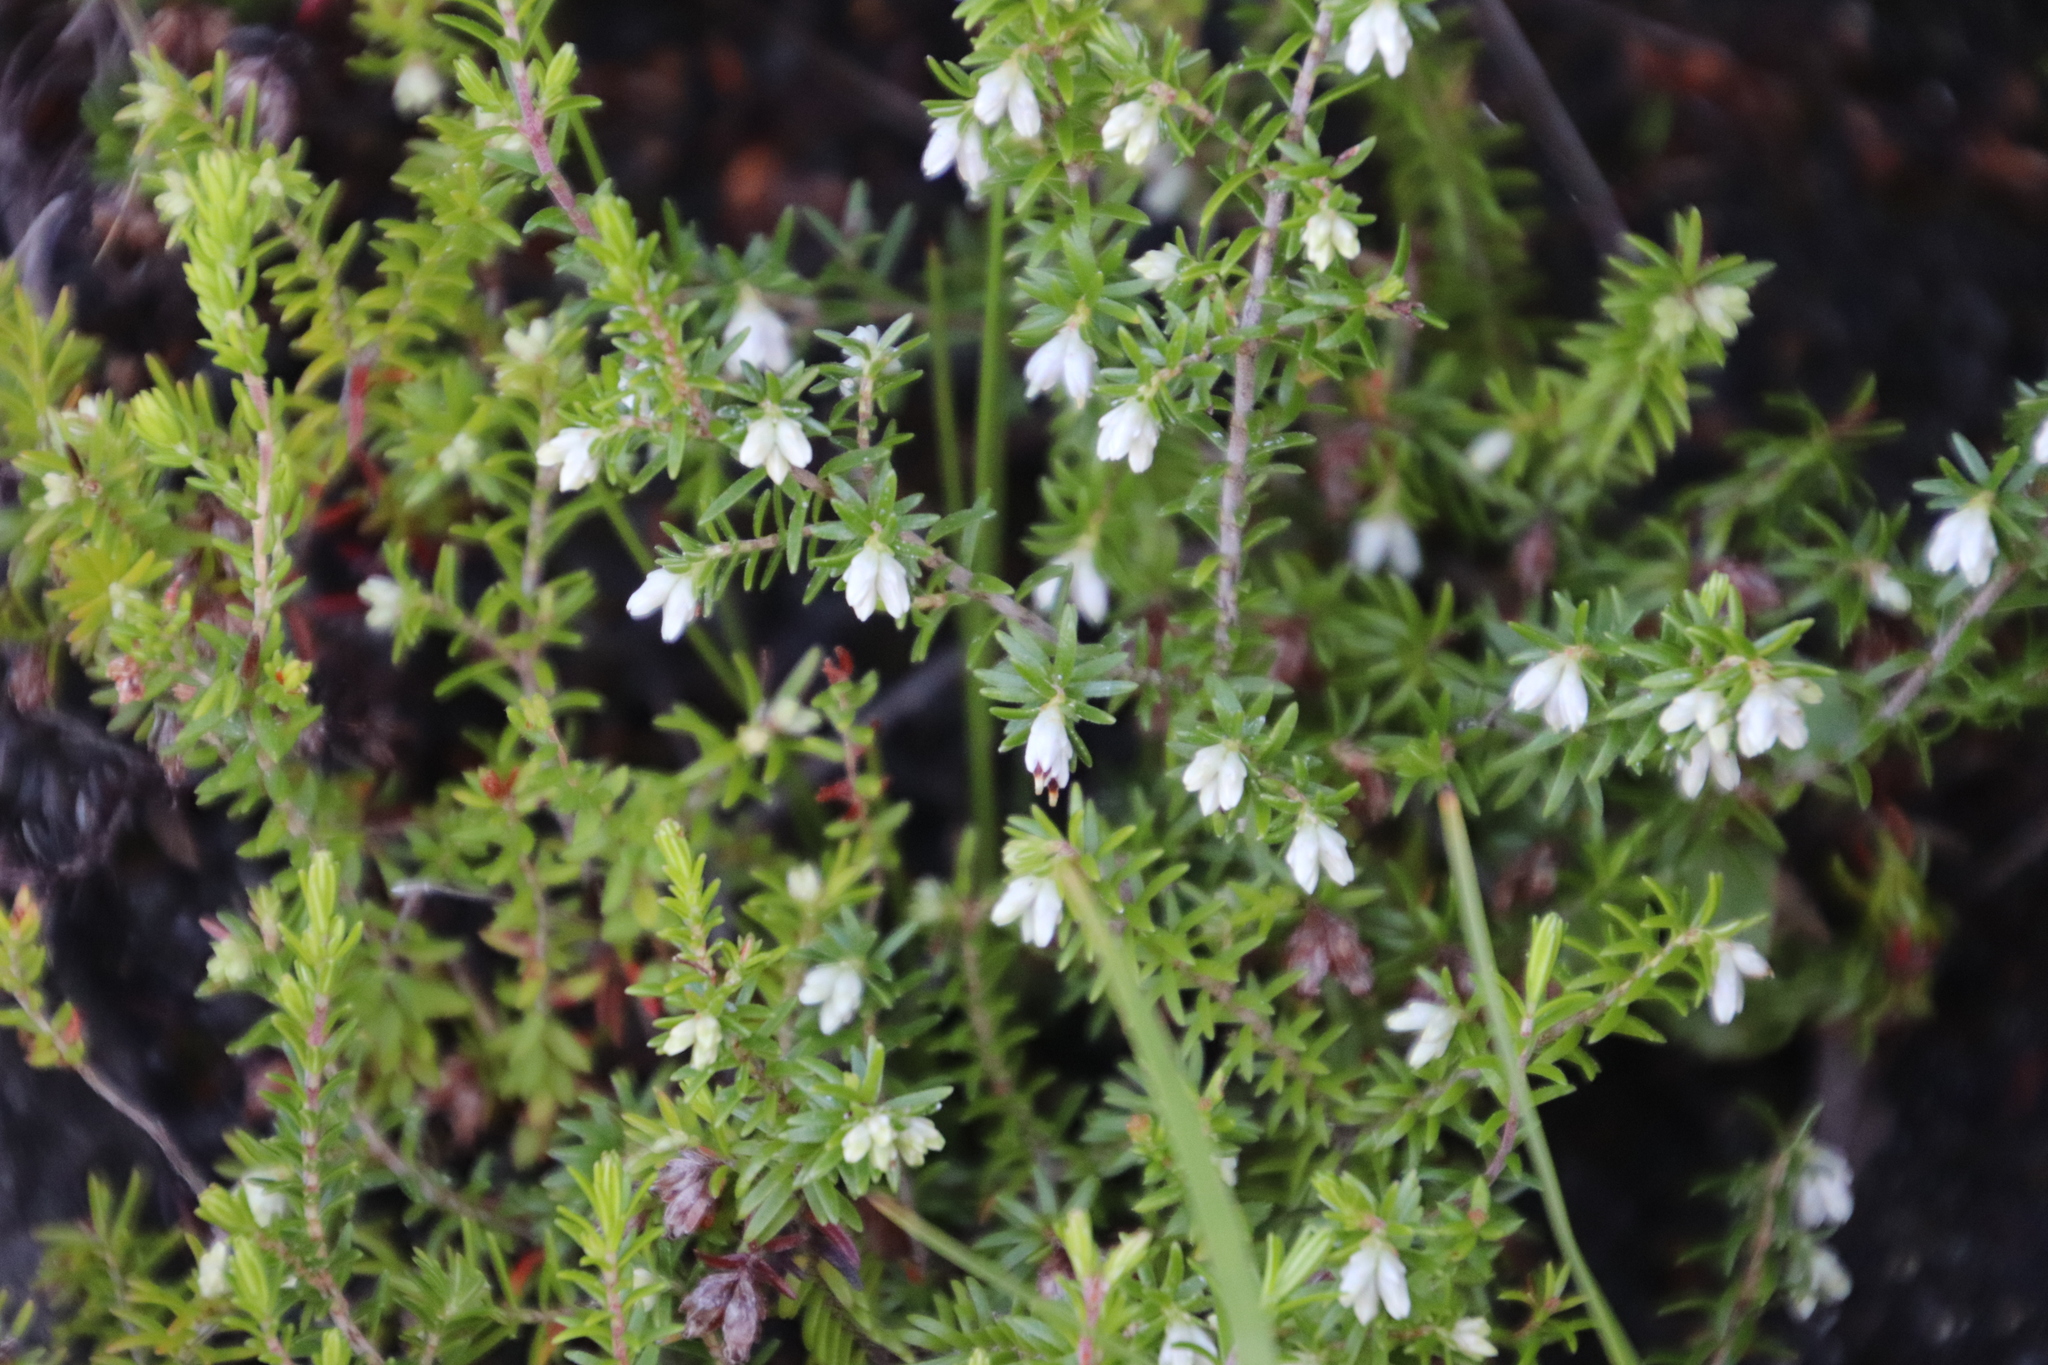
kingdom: Plantae
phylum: Tracheophyta
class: Magnoliopsida
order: Ericales
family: Ericaceae
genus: Erica
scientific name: Erica genistifolia
